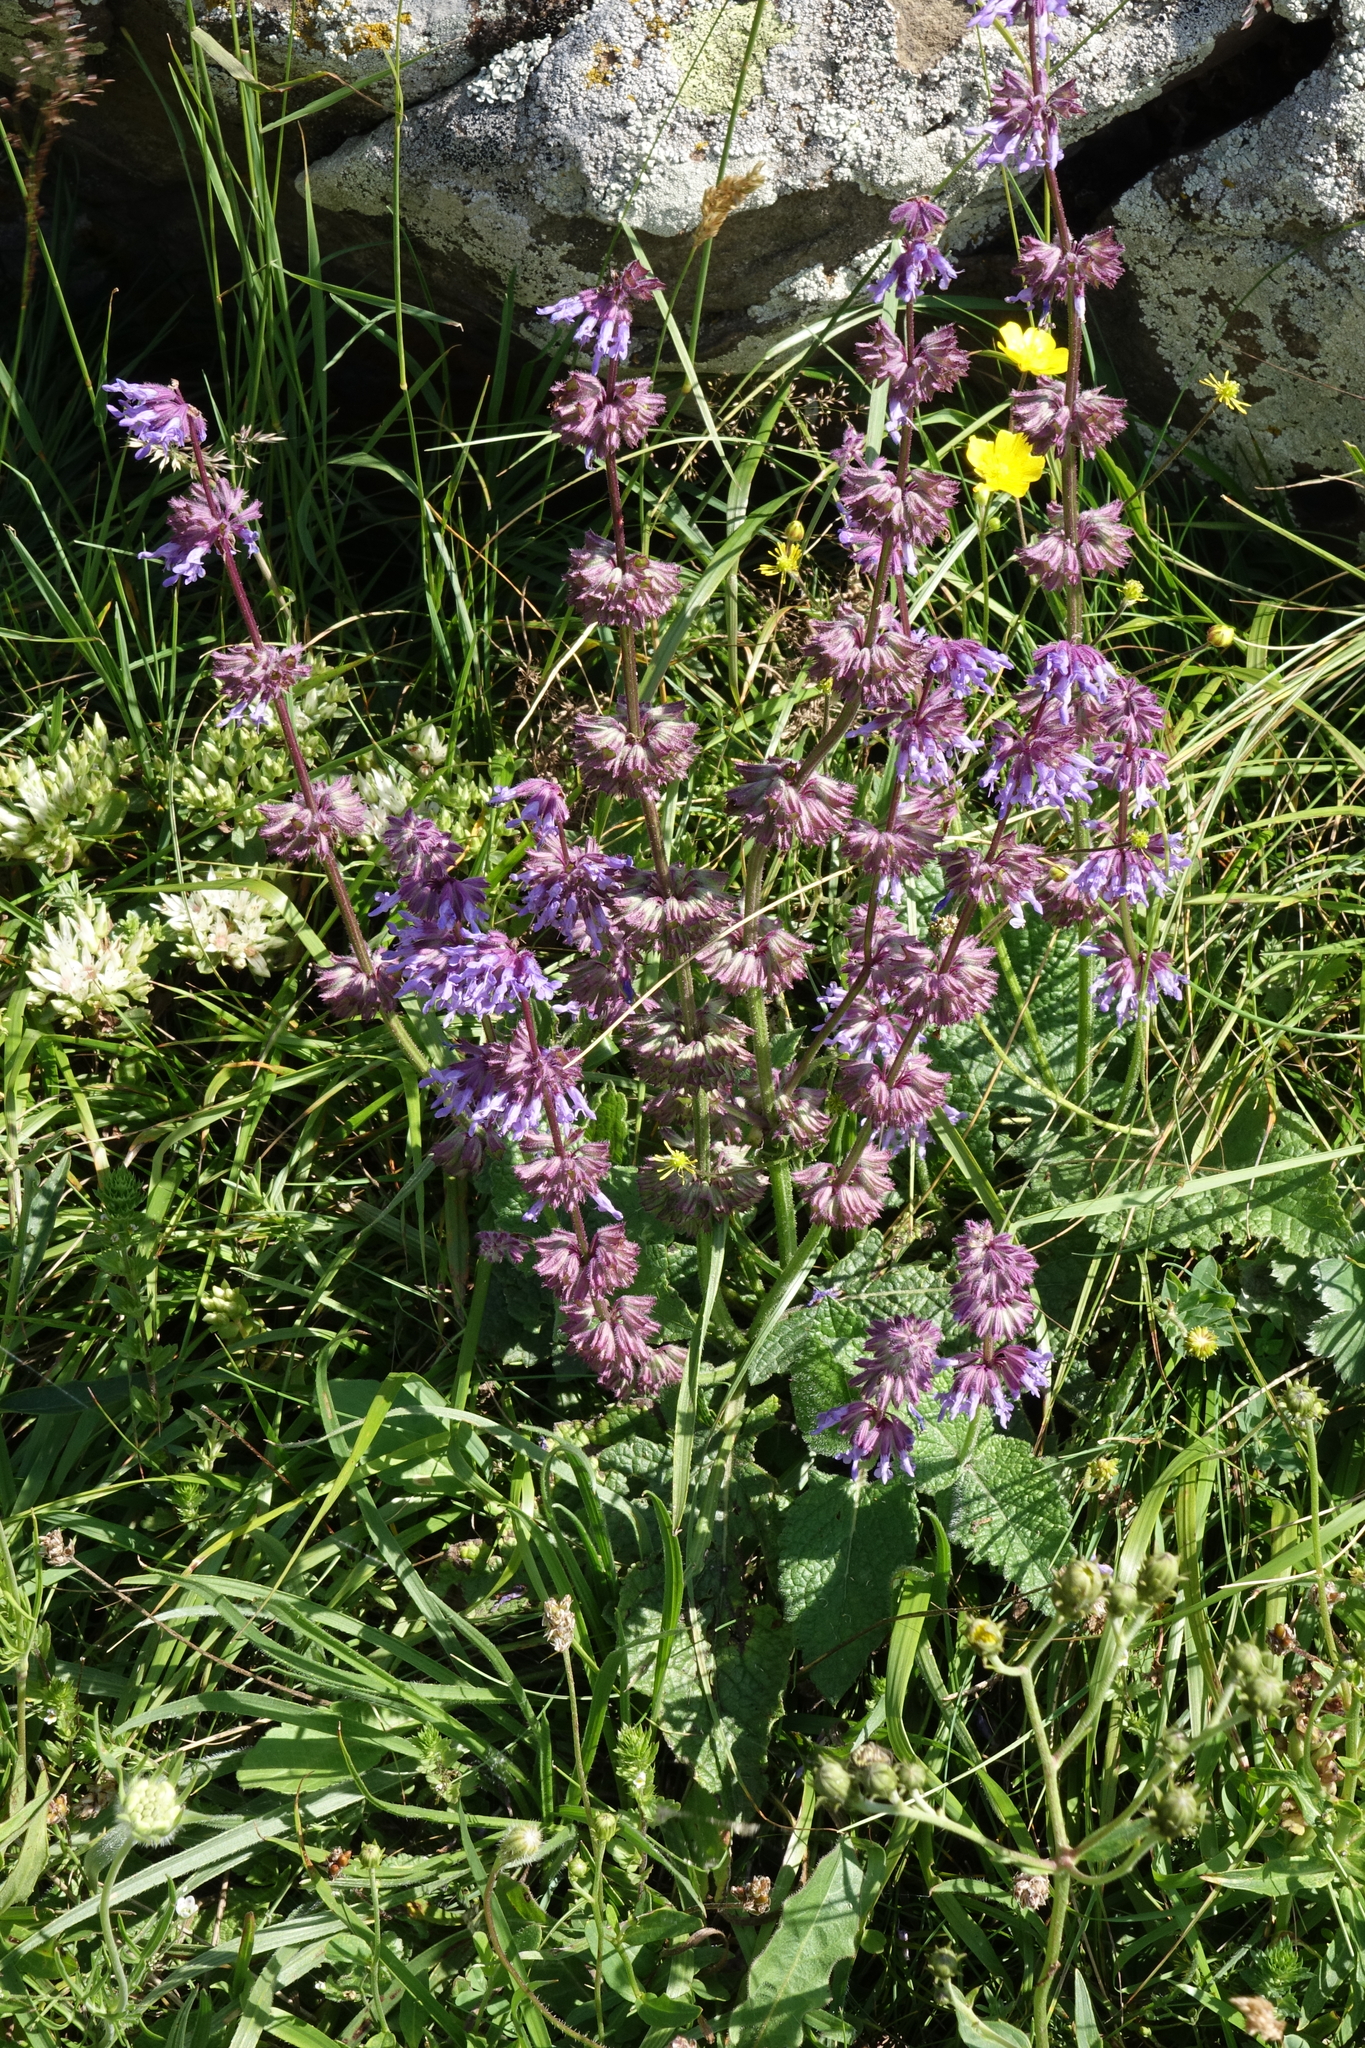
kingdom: Plantae
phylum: Tracheophyta
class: Magnoliopsida
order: Lamiales
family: Lamiaceae
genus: Salvia
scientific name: Salvia verticillata
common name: Whorled clary
